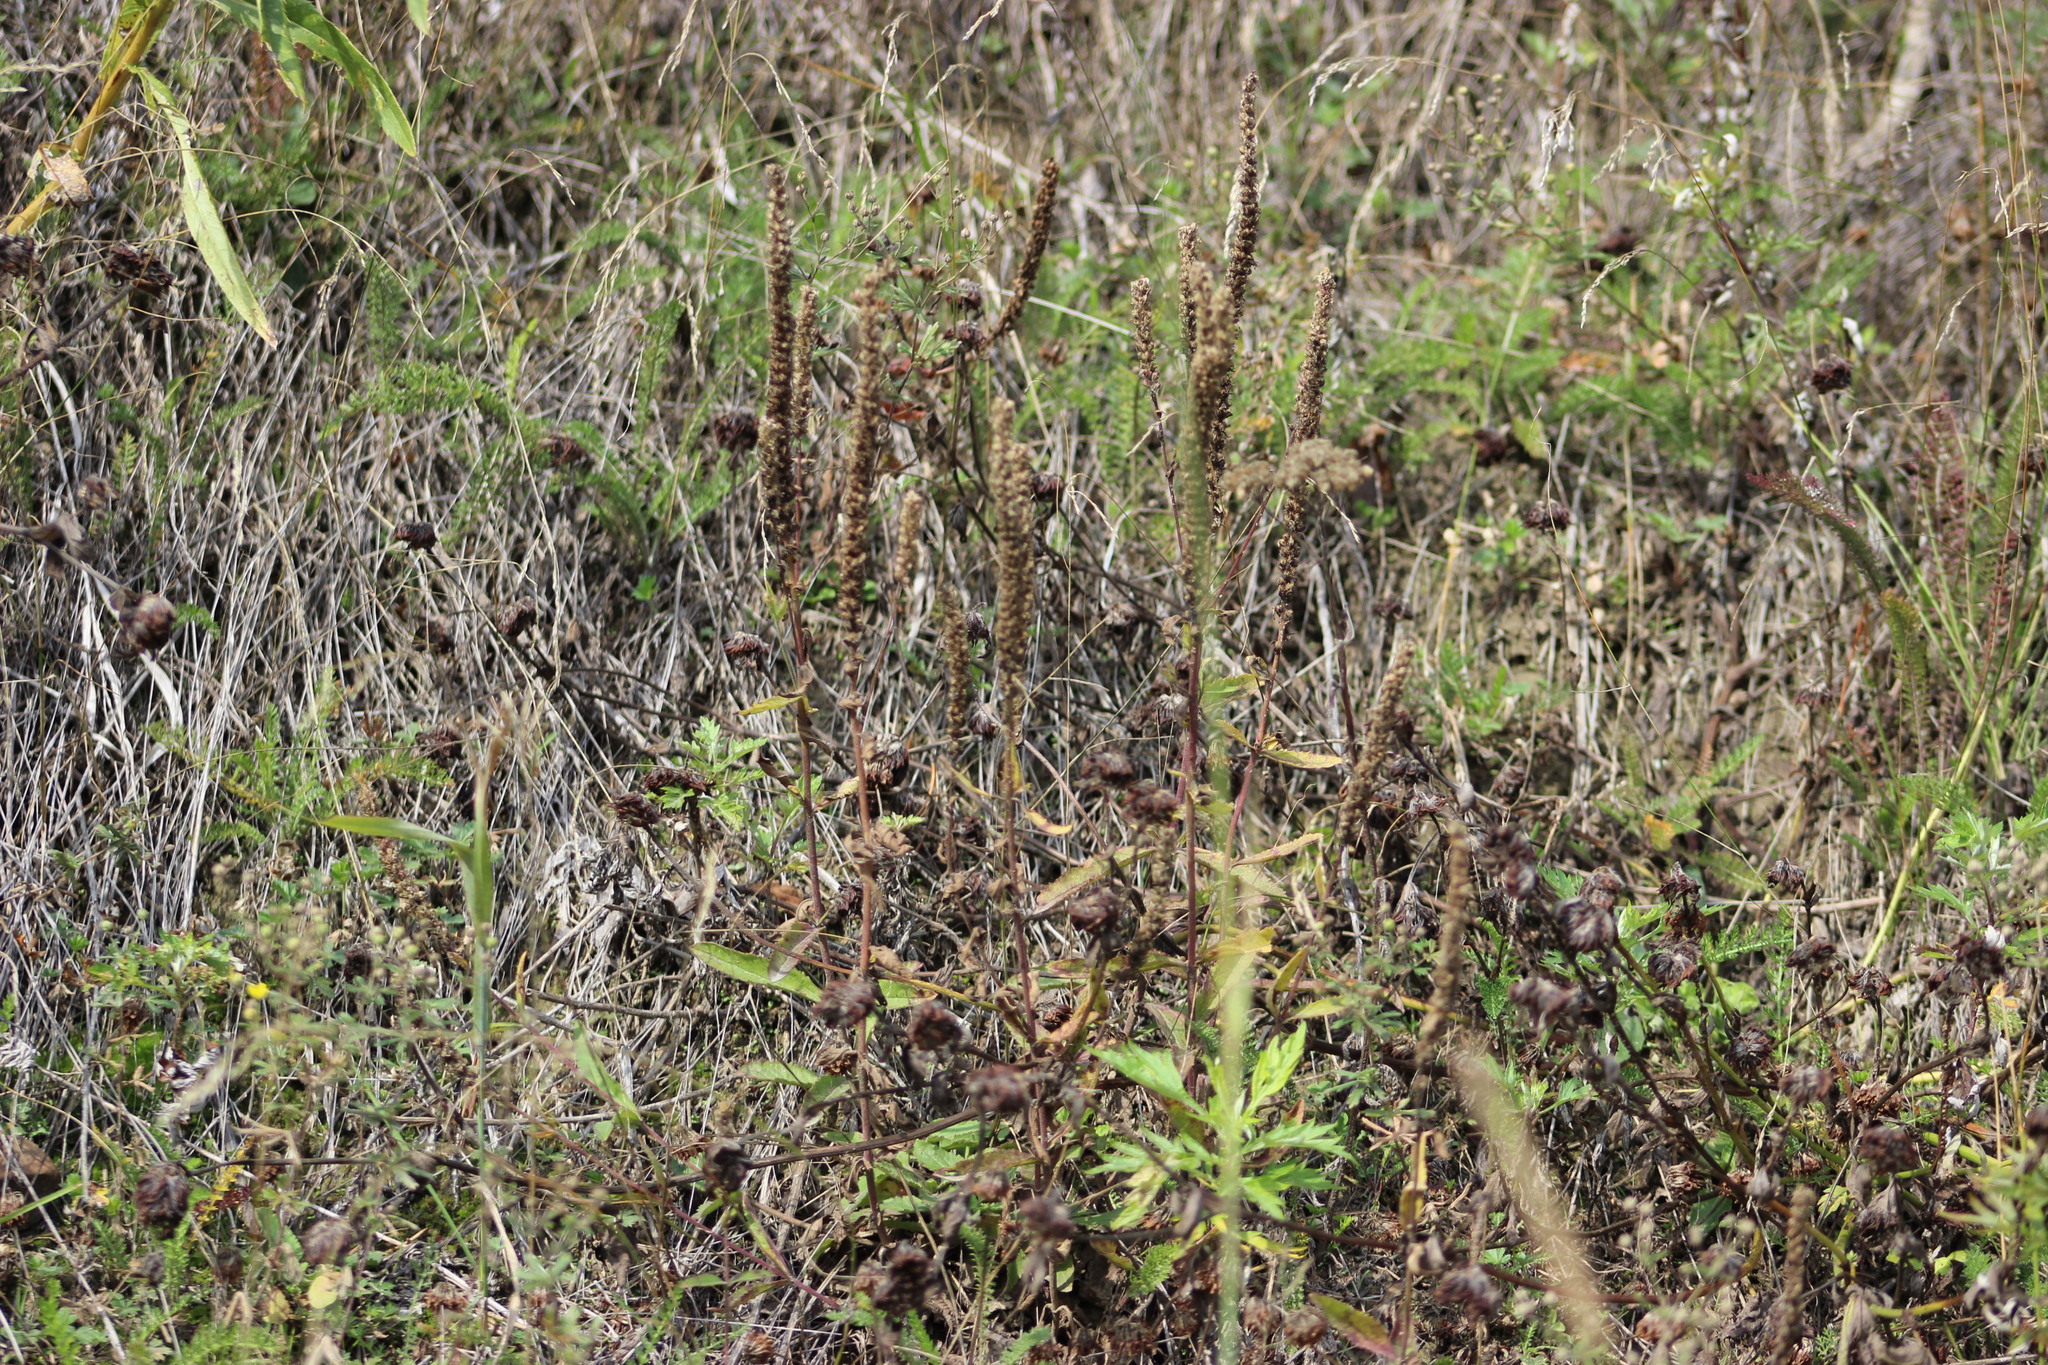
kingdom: Plantae
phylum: Tracheophyta
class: Magnoliopsida
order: Lamiales
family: Plantaginaceae
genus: Veronica
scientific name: Veronica spicata
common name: Spiked speedwell
